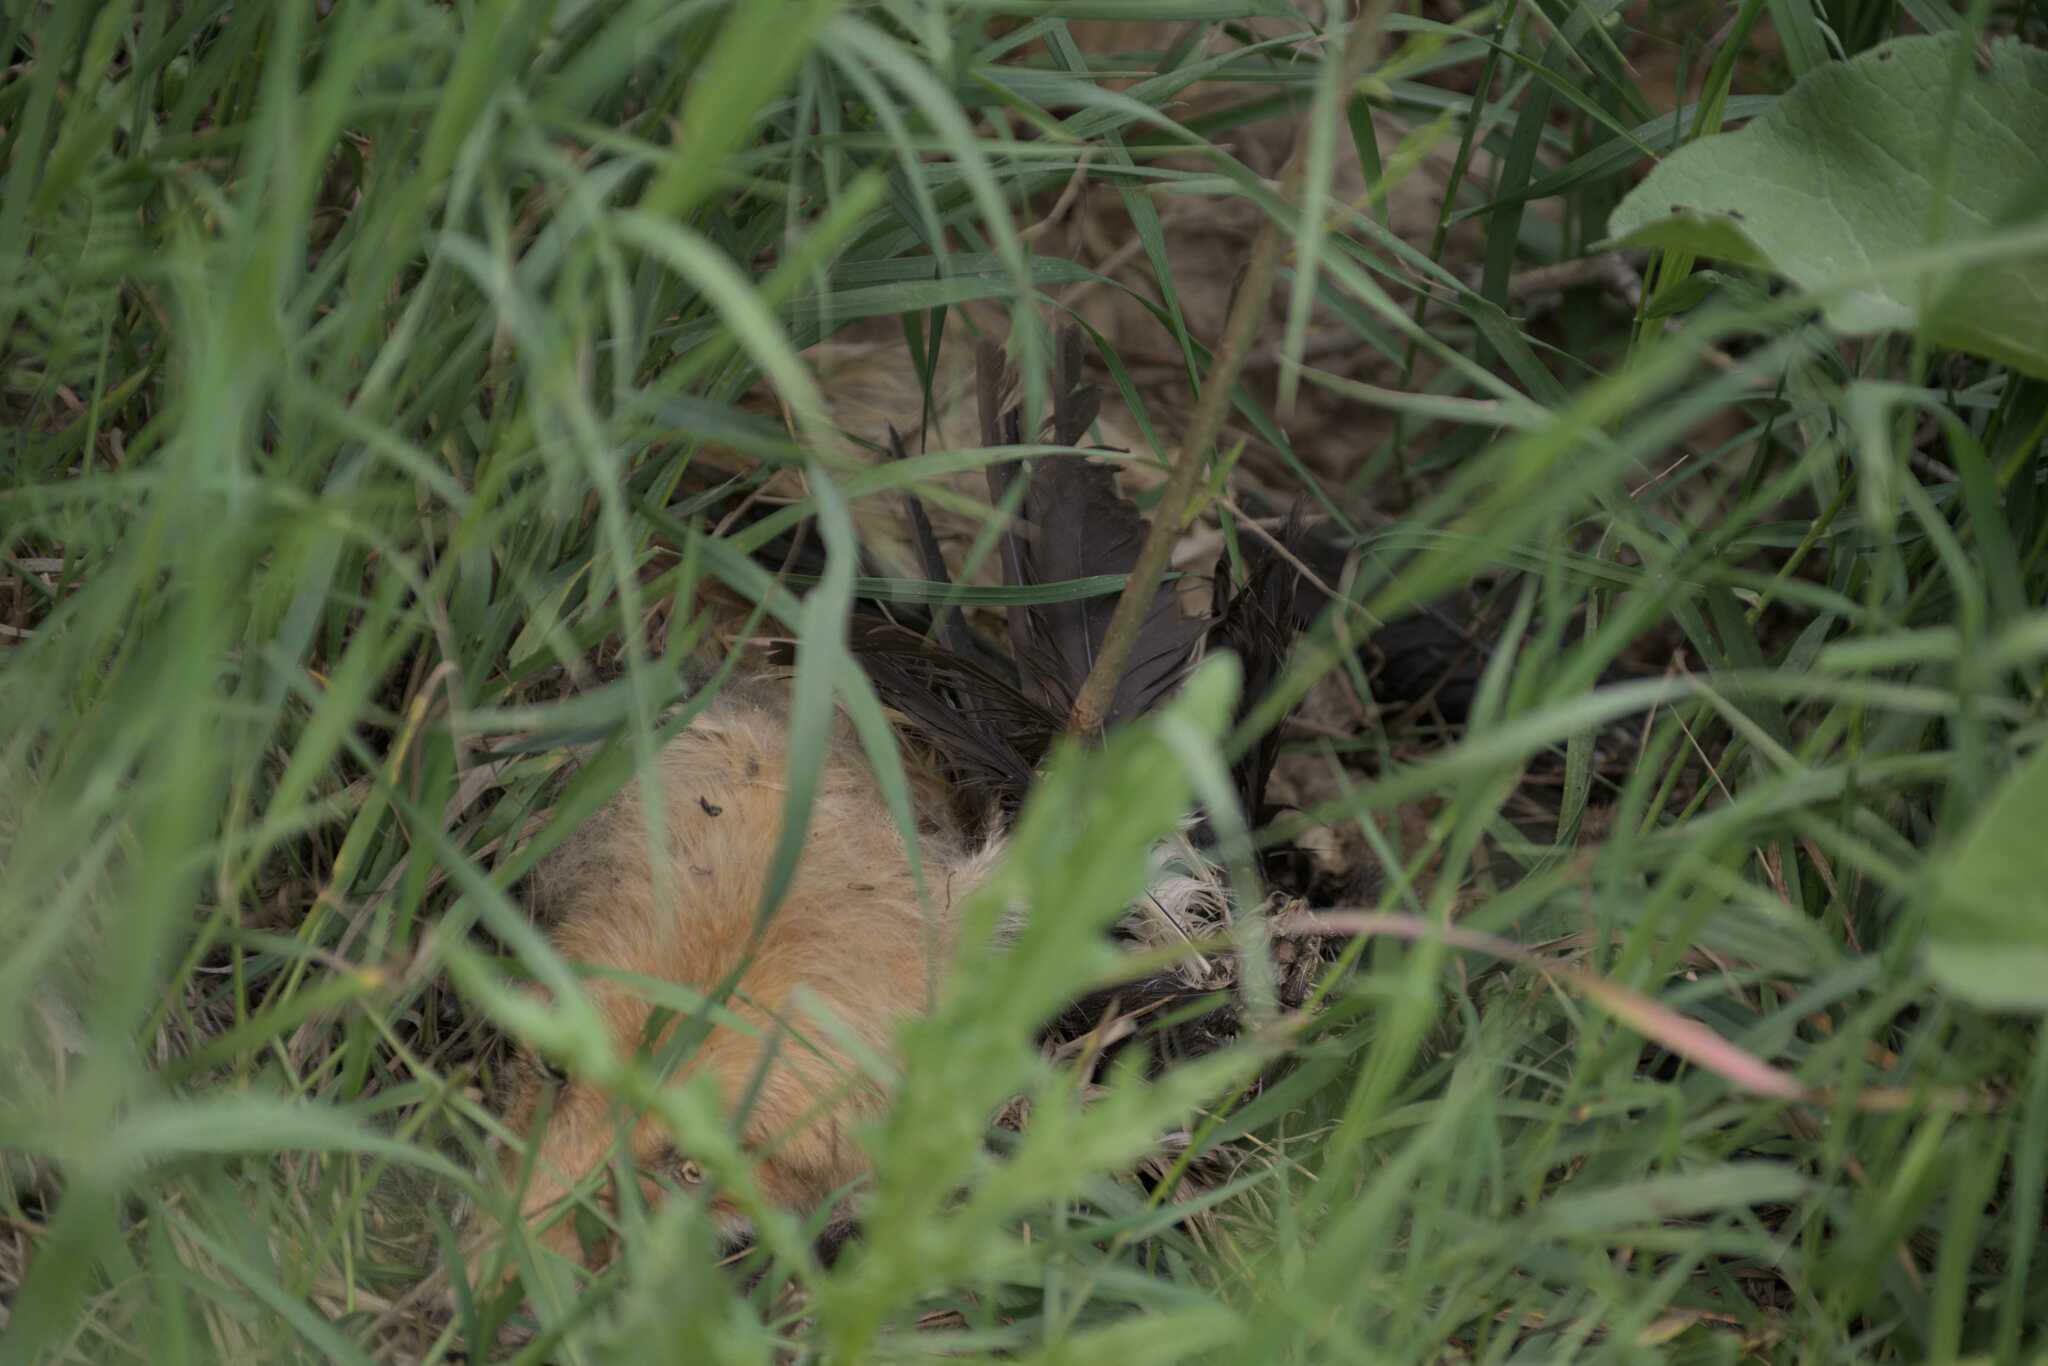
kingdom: Animalia
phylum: Chordata
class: Mammalia
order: Carnivora
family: Canidae
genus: Vulpes
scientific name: Vulpes vulpes
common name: Red fox
